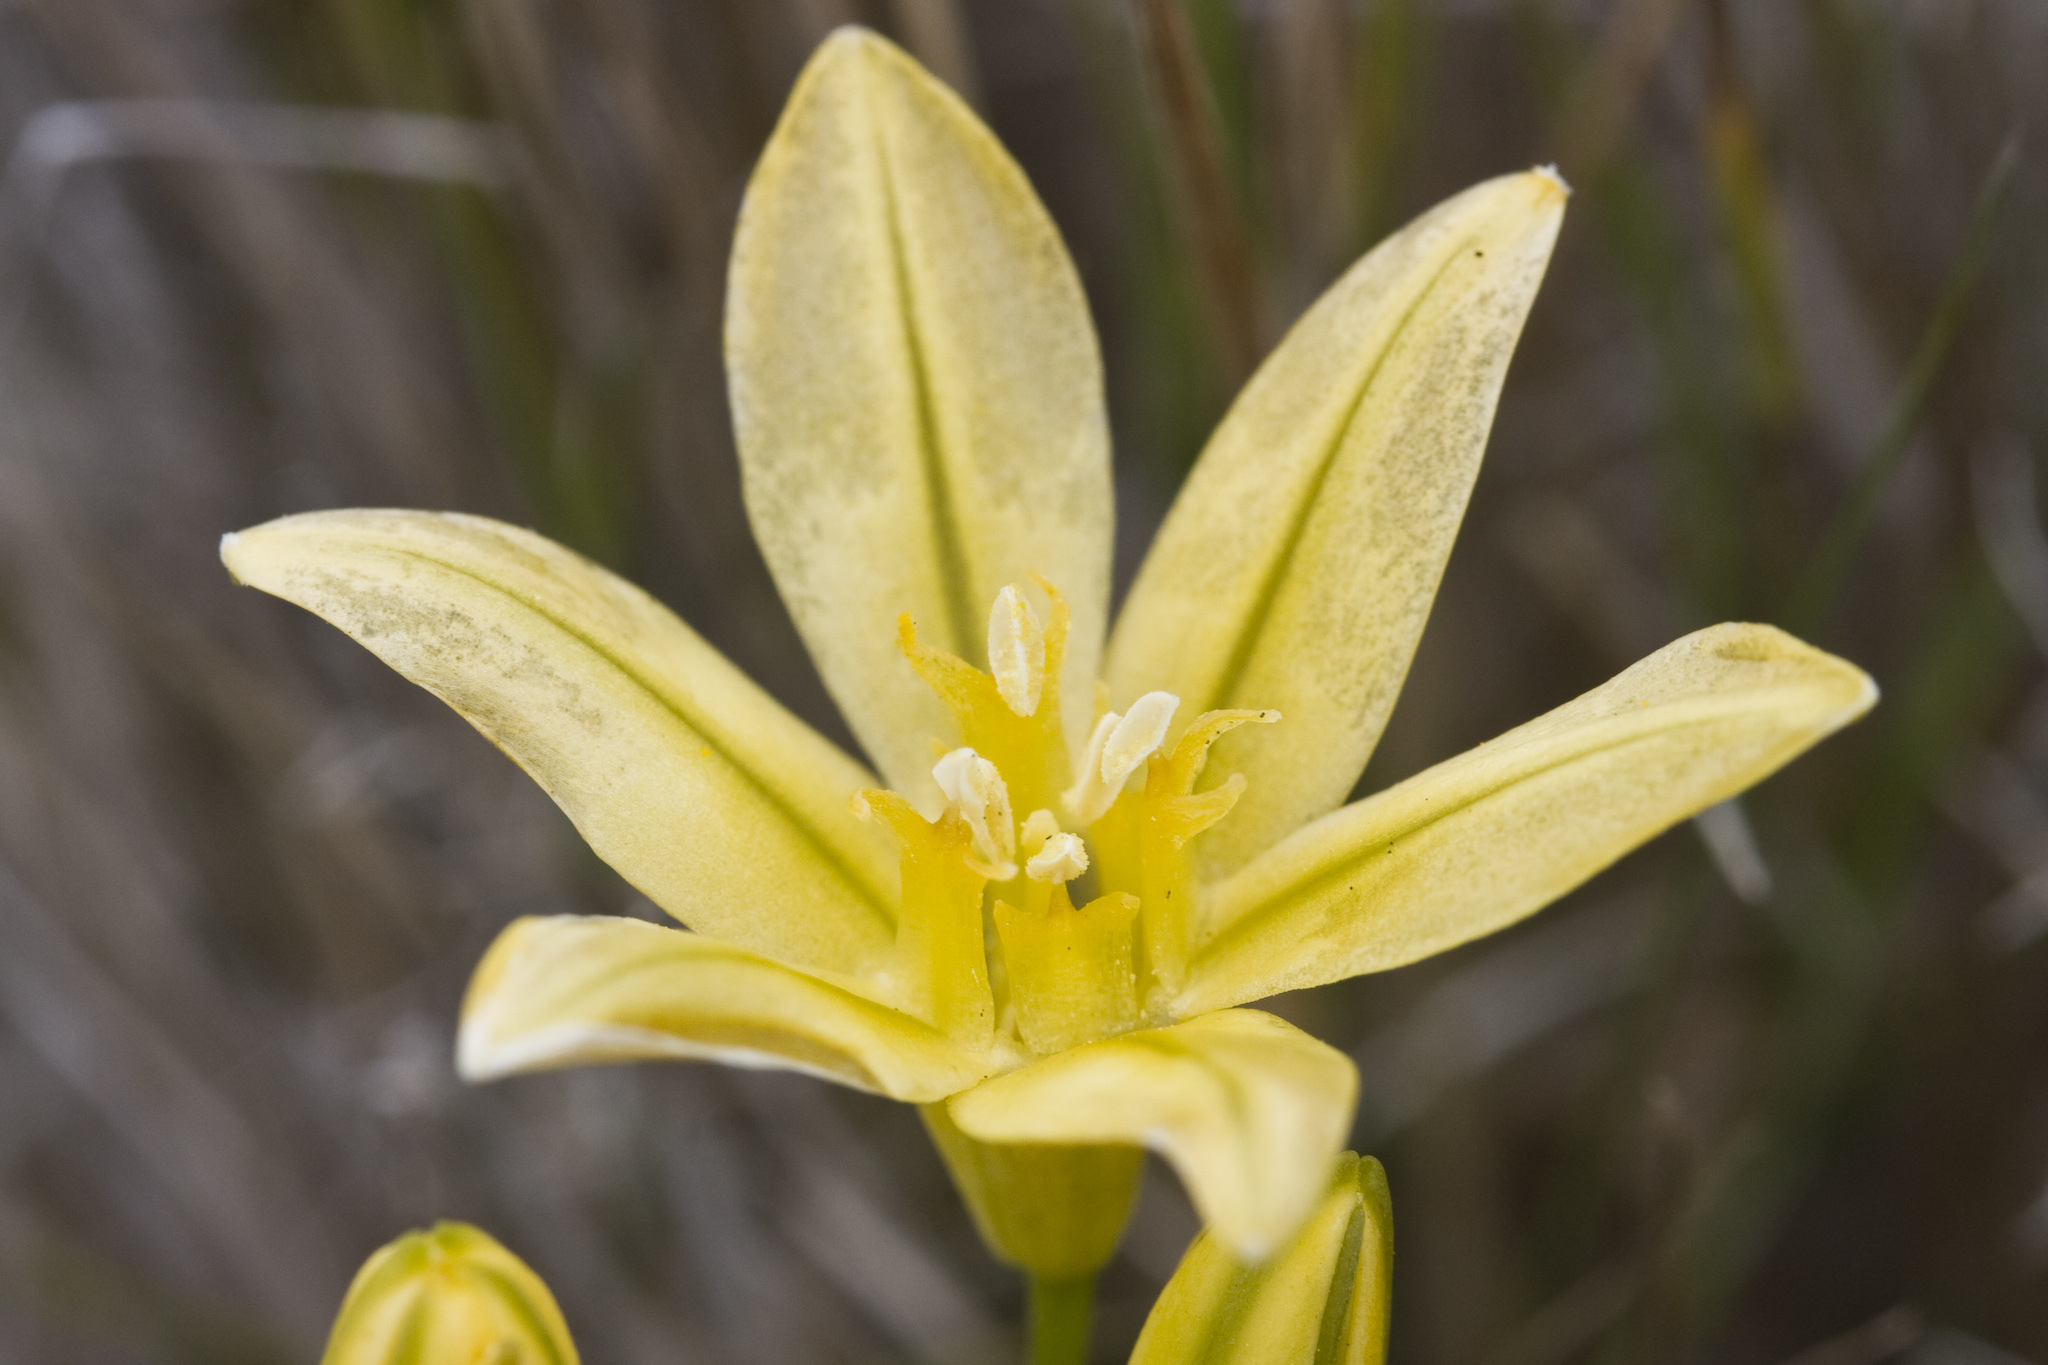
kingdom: Plantae
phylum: Tracheophyta
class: Liliopsida
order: Asparagales
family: Asparagaceae
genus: Triteleia
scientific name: Triteleia ixioides
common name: Yellow-brodiaea
